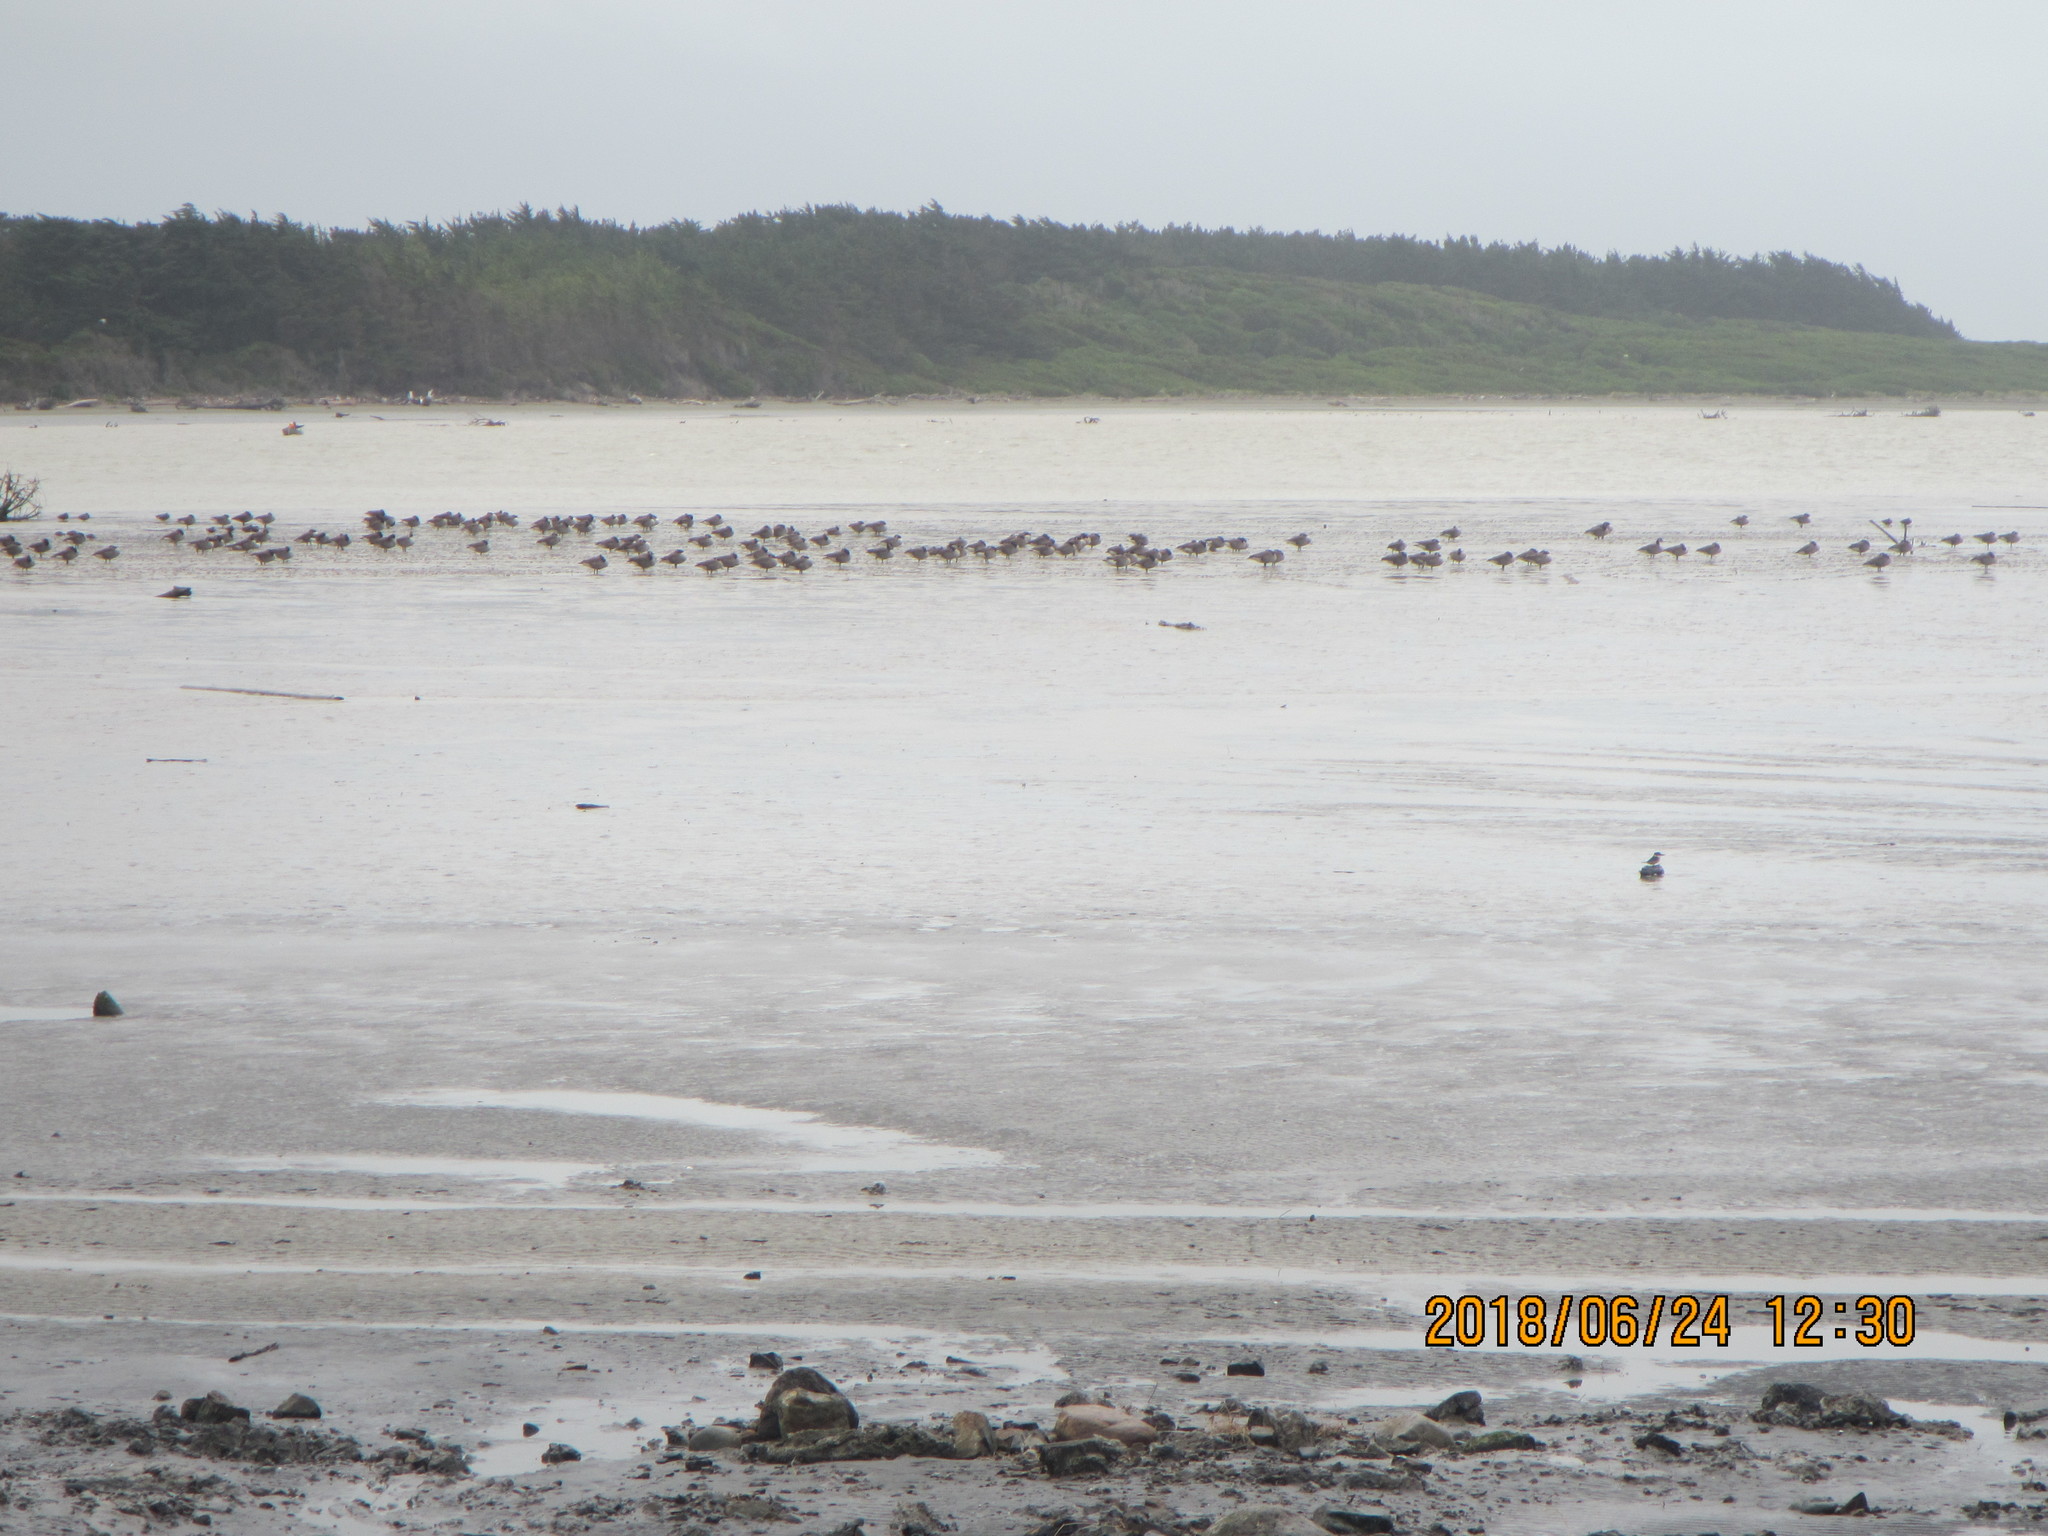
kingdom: Animalia
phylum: Chordata
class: Aves
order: Anseriformes
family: Anatidae
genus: Branta
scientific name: Branta canadensis
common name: Canada goose
